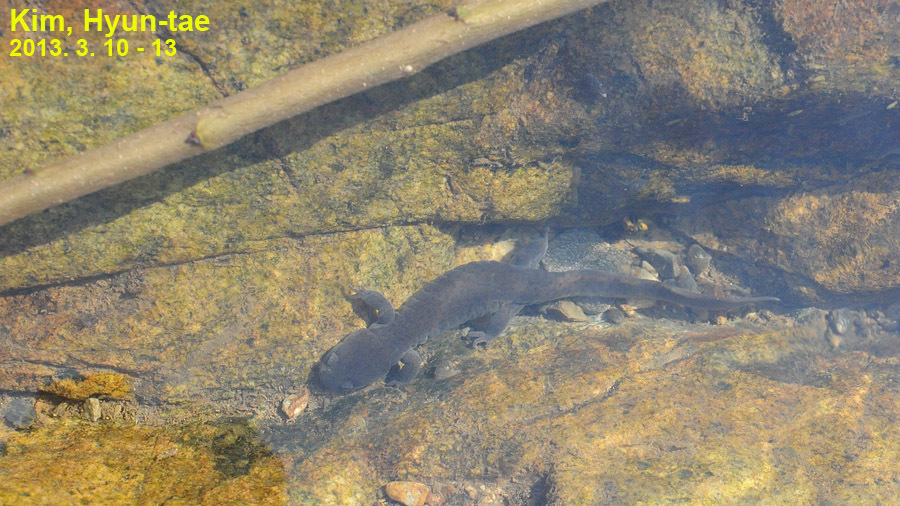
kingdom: Animalia
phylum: Chordata
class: Amphibia
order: Caudata
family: Hynobiidae
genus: Hynobius
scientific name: Hynobius perplicatus
